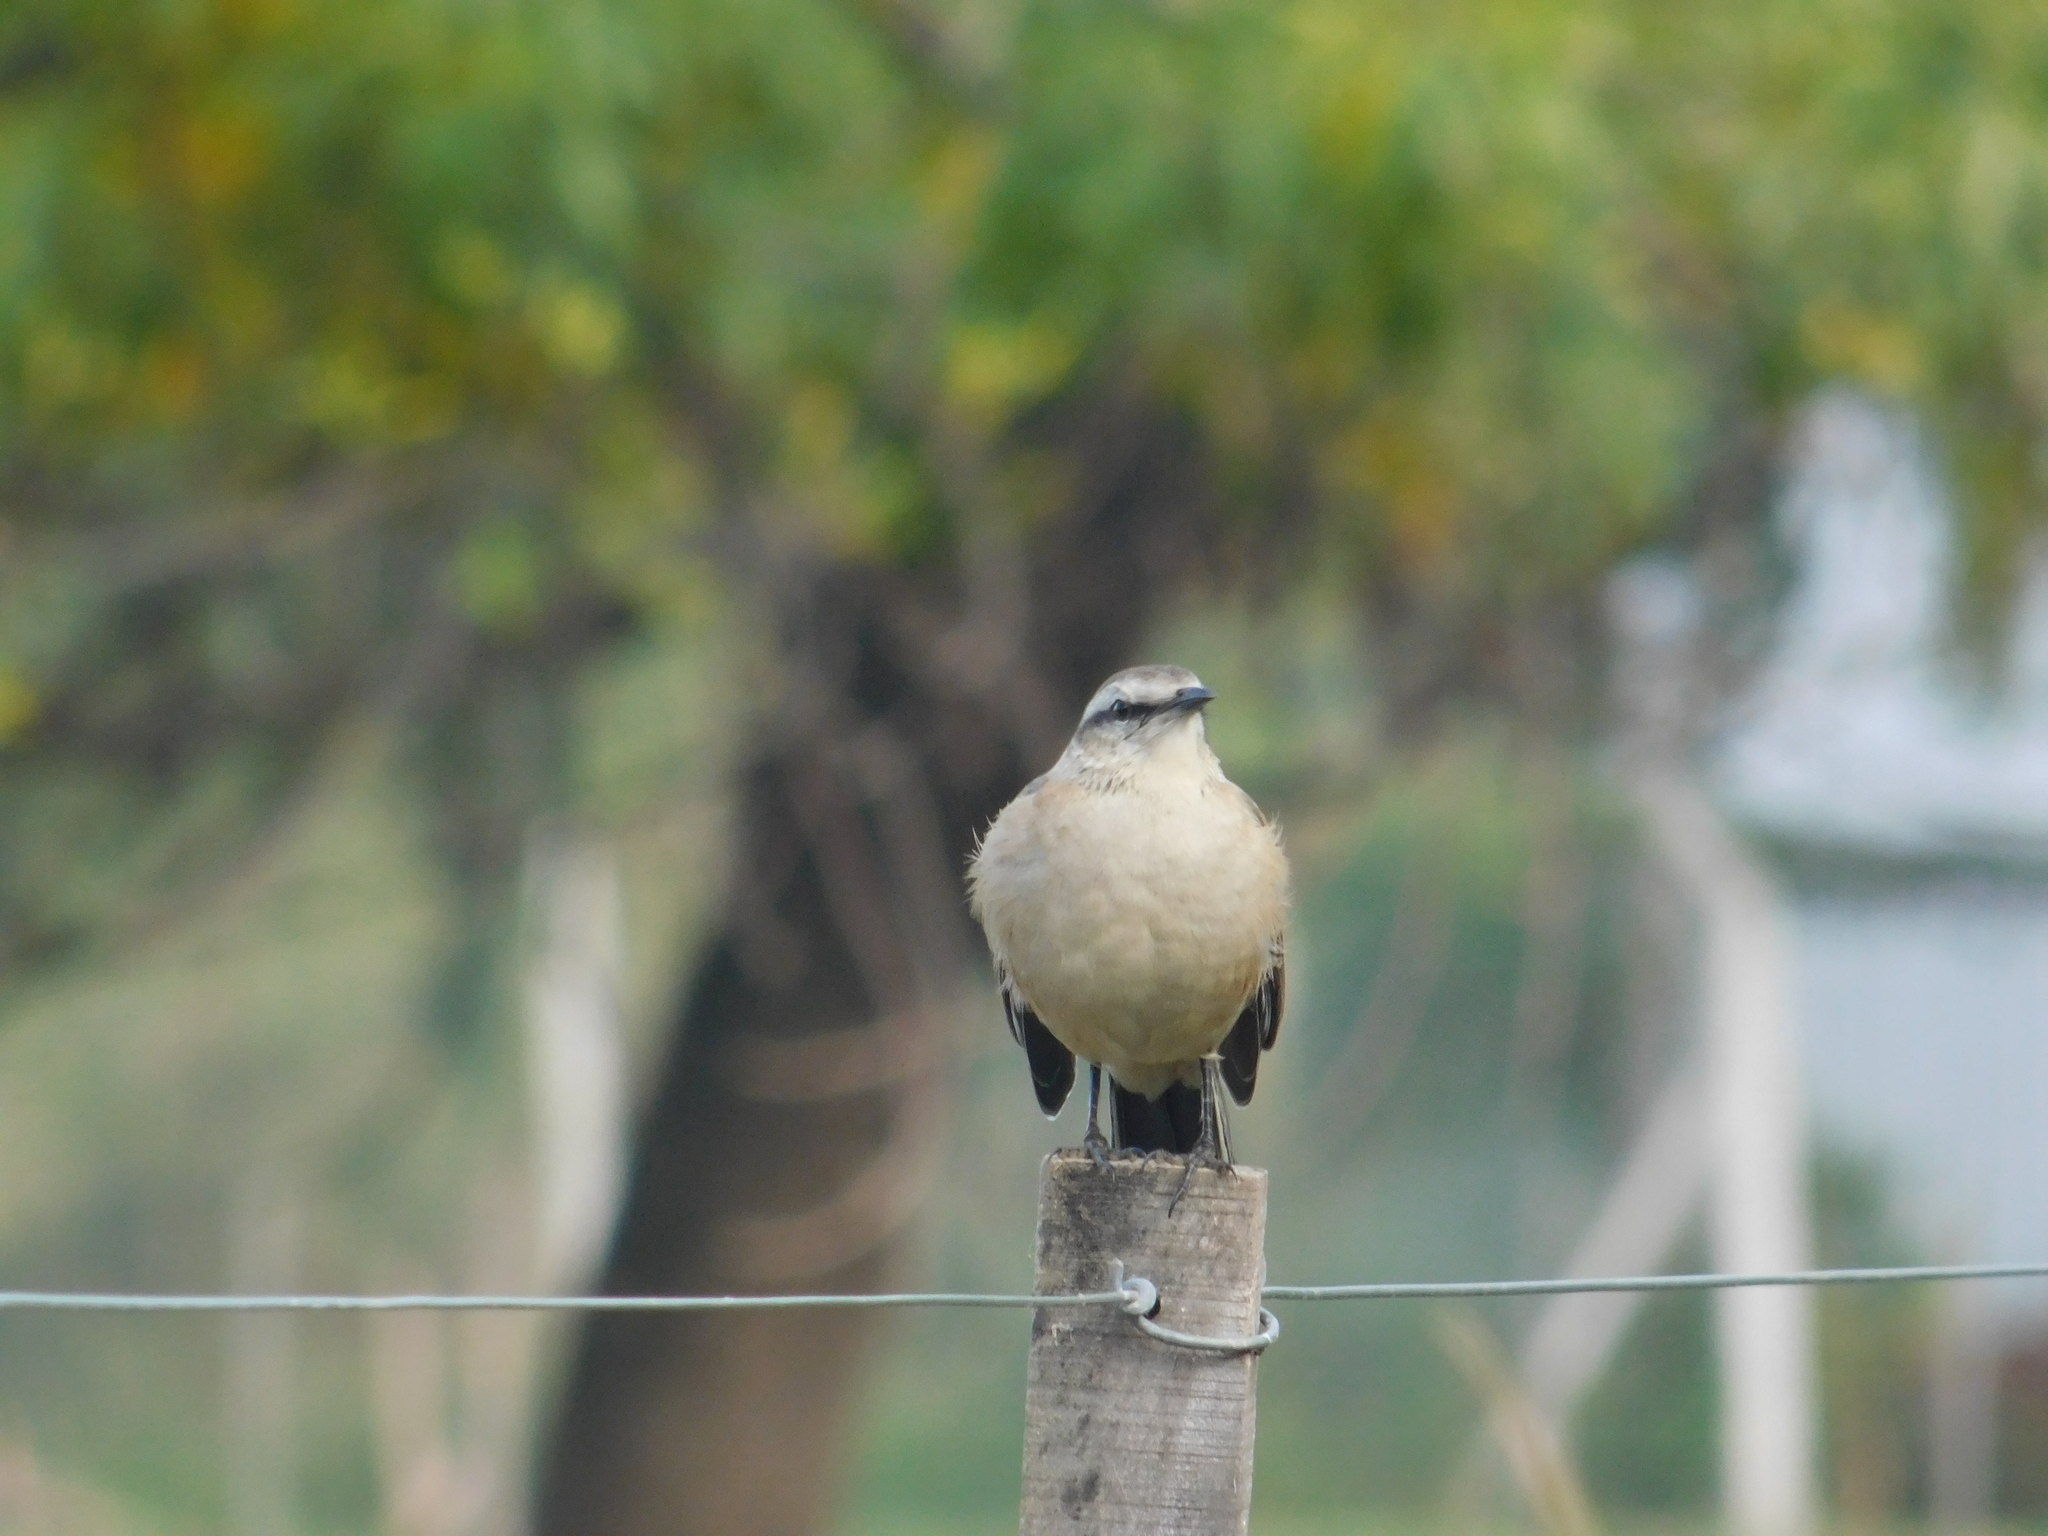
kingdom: Animalia
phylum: Chordata
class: Aves
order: Passeriformes
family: Mimidae
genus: Mimus
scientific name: Mimus saturninus
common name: Chalk-browed mockingbird
